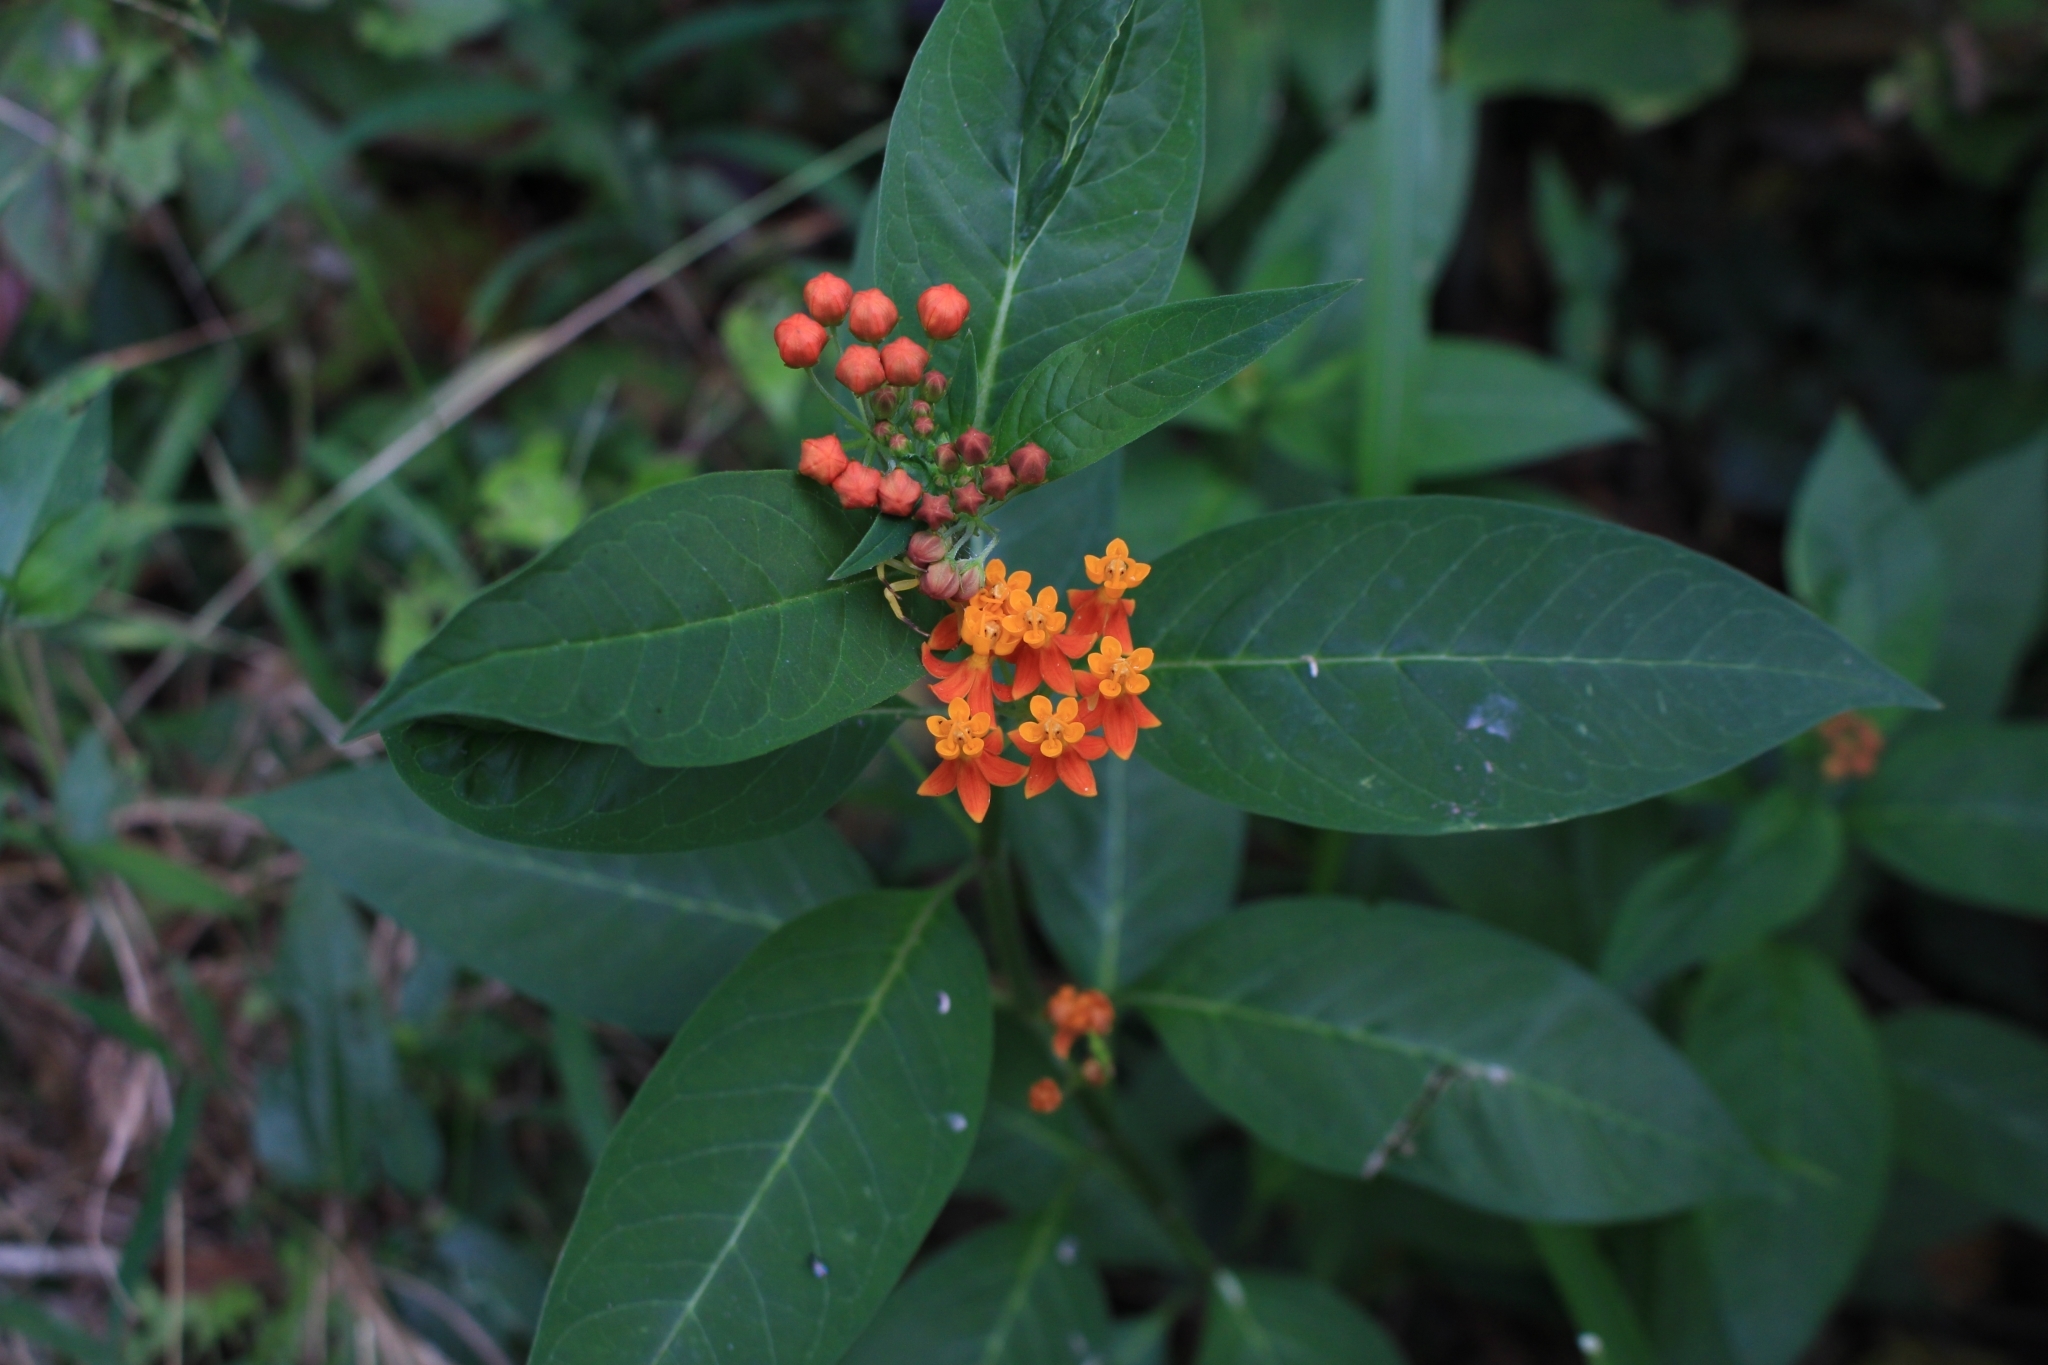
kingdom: Plantae
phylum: Tracheophyta
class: Magnoliopsida
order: Gentianales
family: Apocynaceae
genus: Asclepias
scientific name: Asclepias curassavica
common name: Bloodflower
